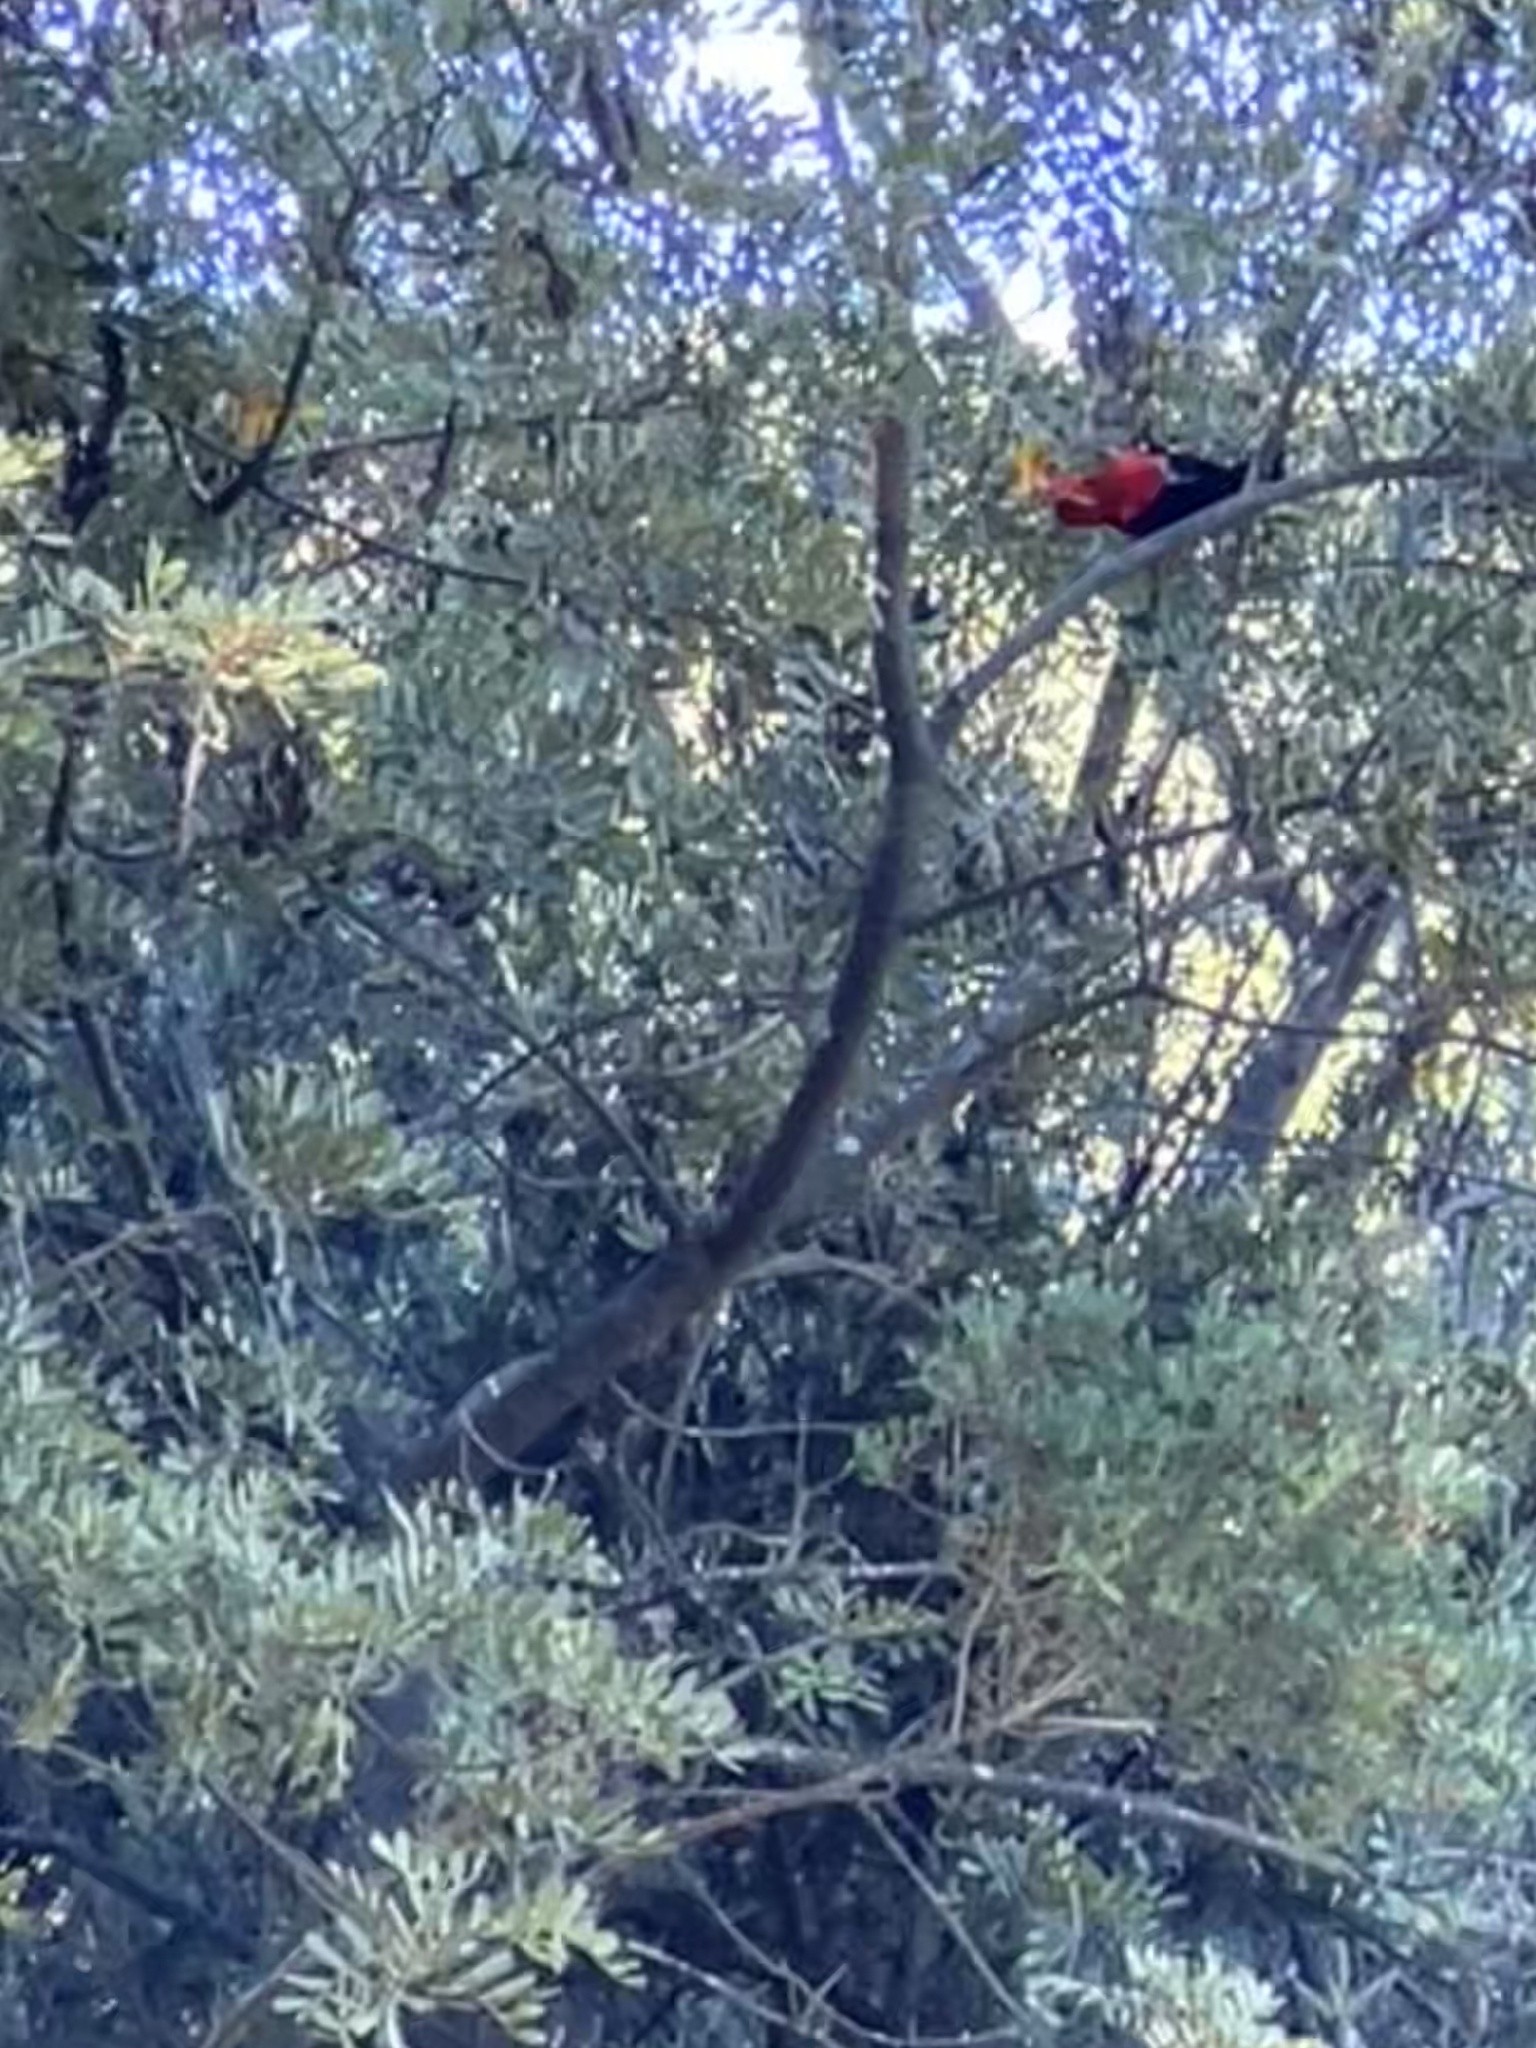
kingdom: Animalia
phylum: Chordata
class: Aves
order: Passeriformes
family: Fringillidae
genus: Vestiaria
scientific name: Vestiaria coccinea
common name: Iiwi
